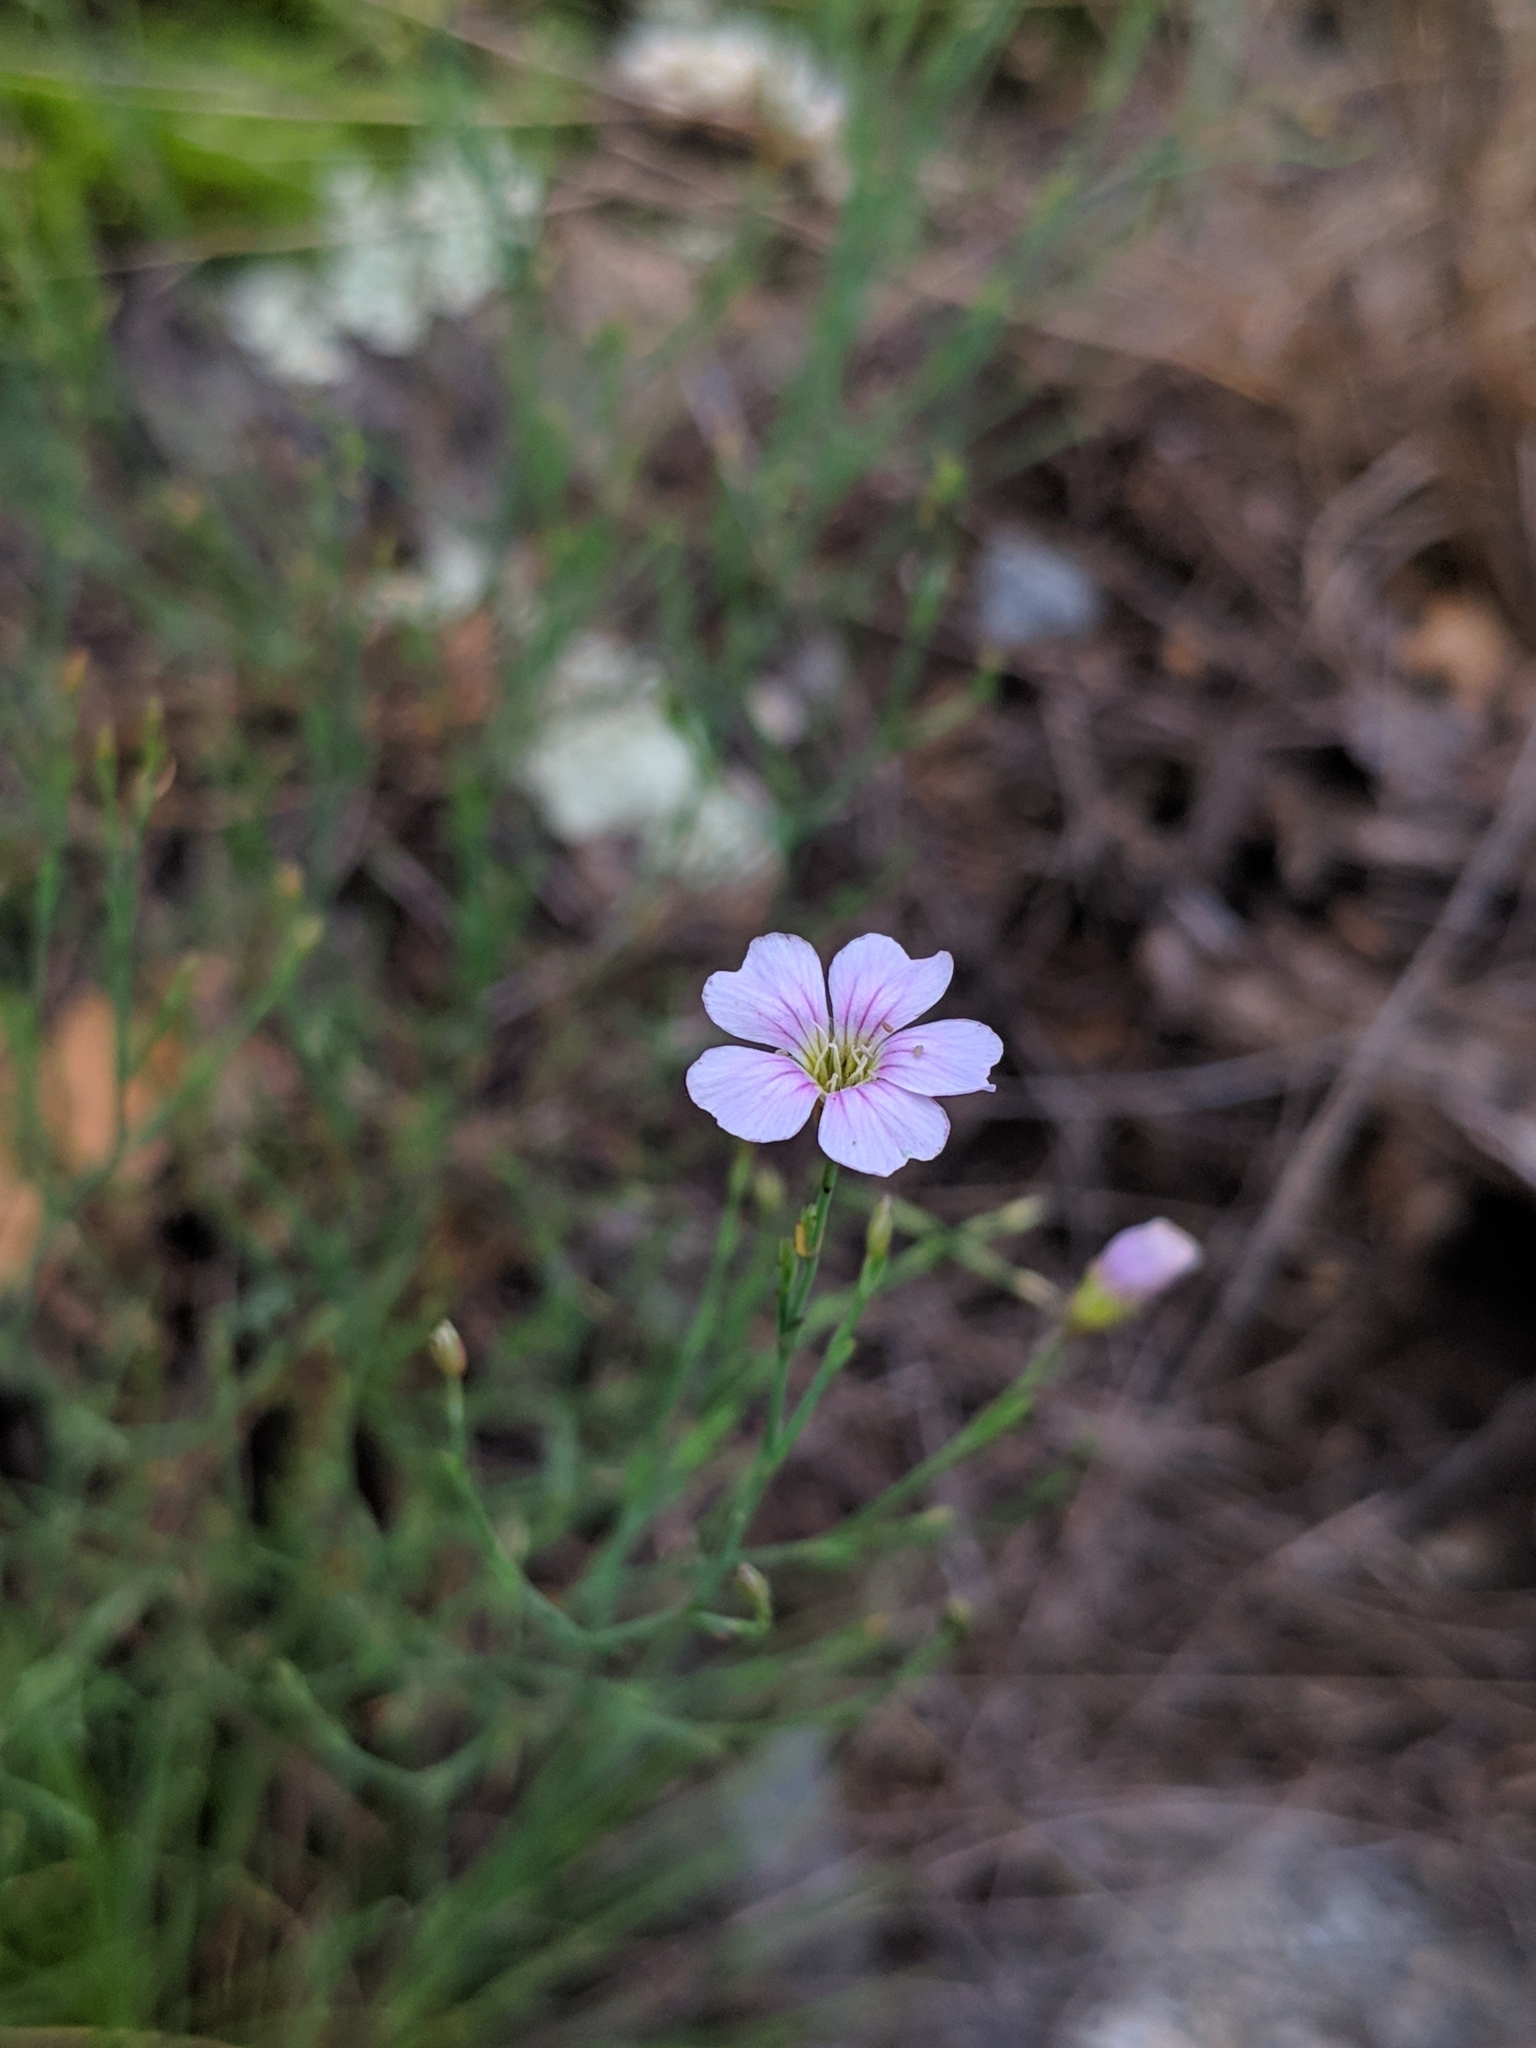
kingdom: Plantae
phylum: Tracheophyta
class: Magnoliopsida
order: Caryophyllales
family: Caryophyllaceae
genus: Petrorhagia
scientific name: Petrorhagia saxifraga
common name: Tunicflower
